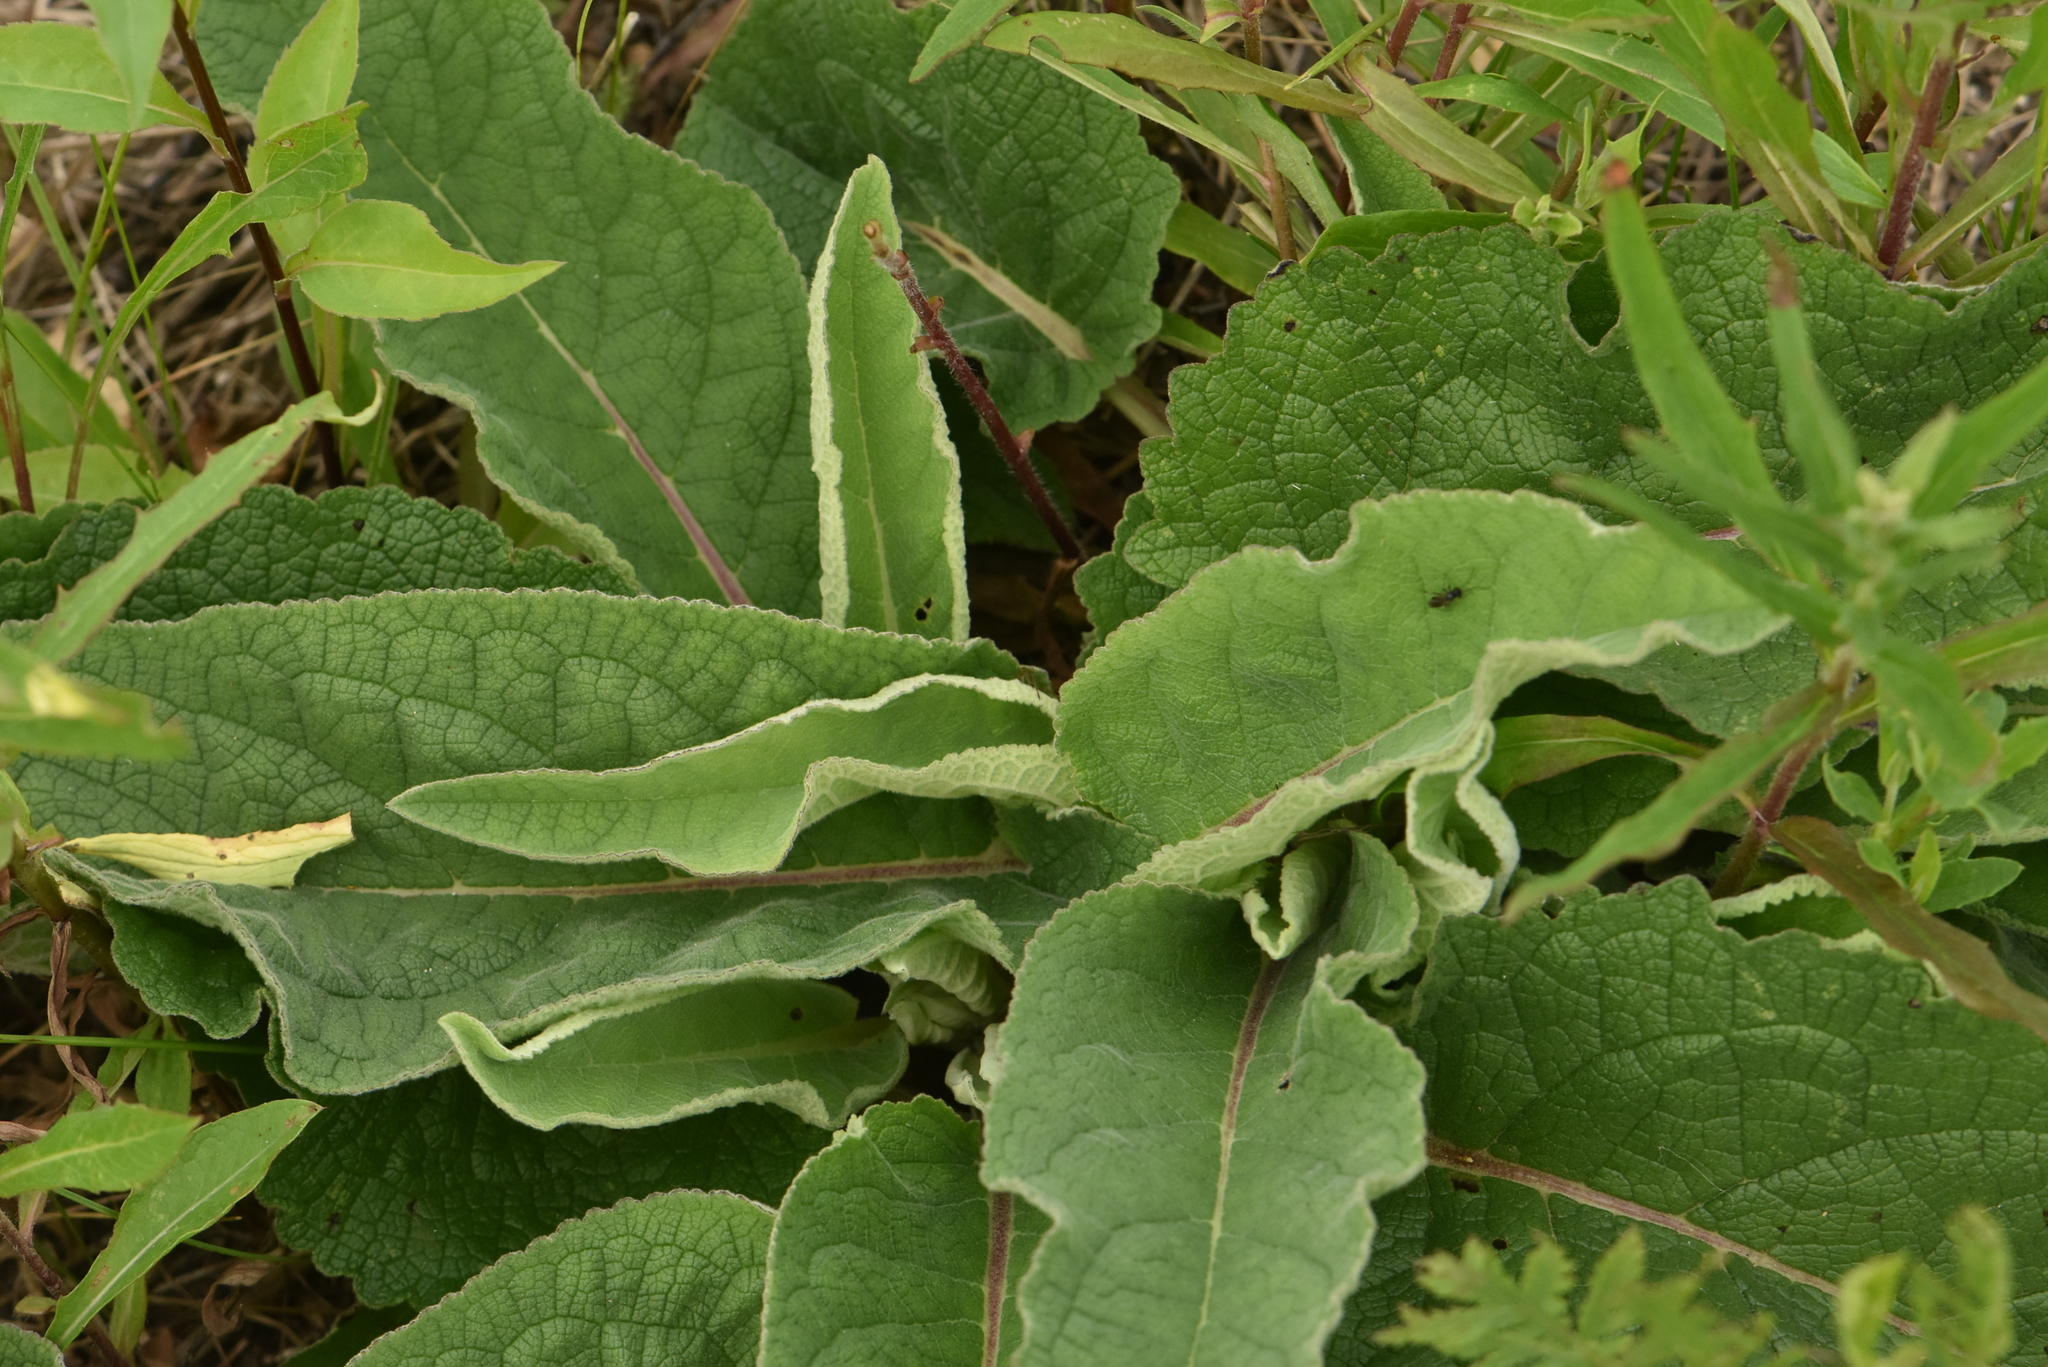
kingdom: Plantae
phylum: Tracheophyta
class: Magnoliopsida
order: Lamiales
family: Scrophulariaceae
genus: Verbascum
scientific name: Verbascum nigrum
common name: Dark mullein
